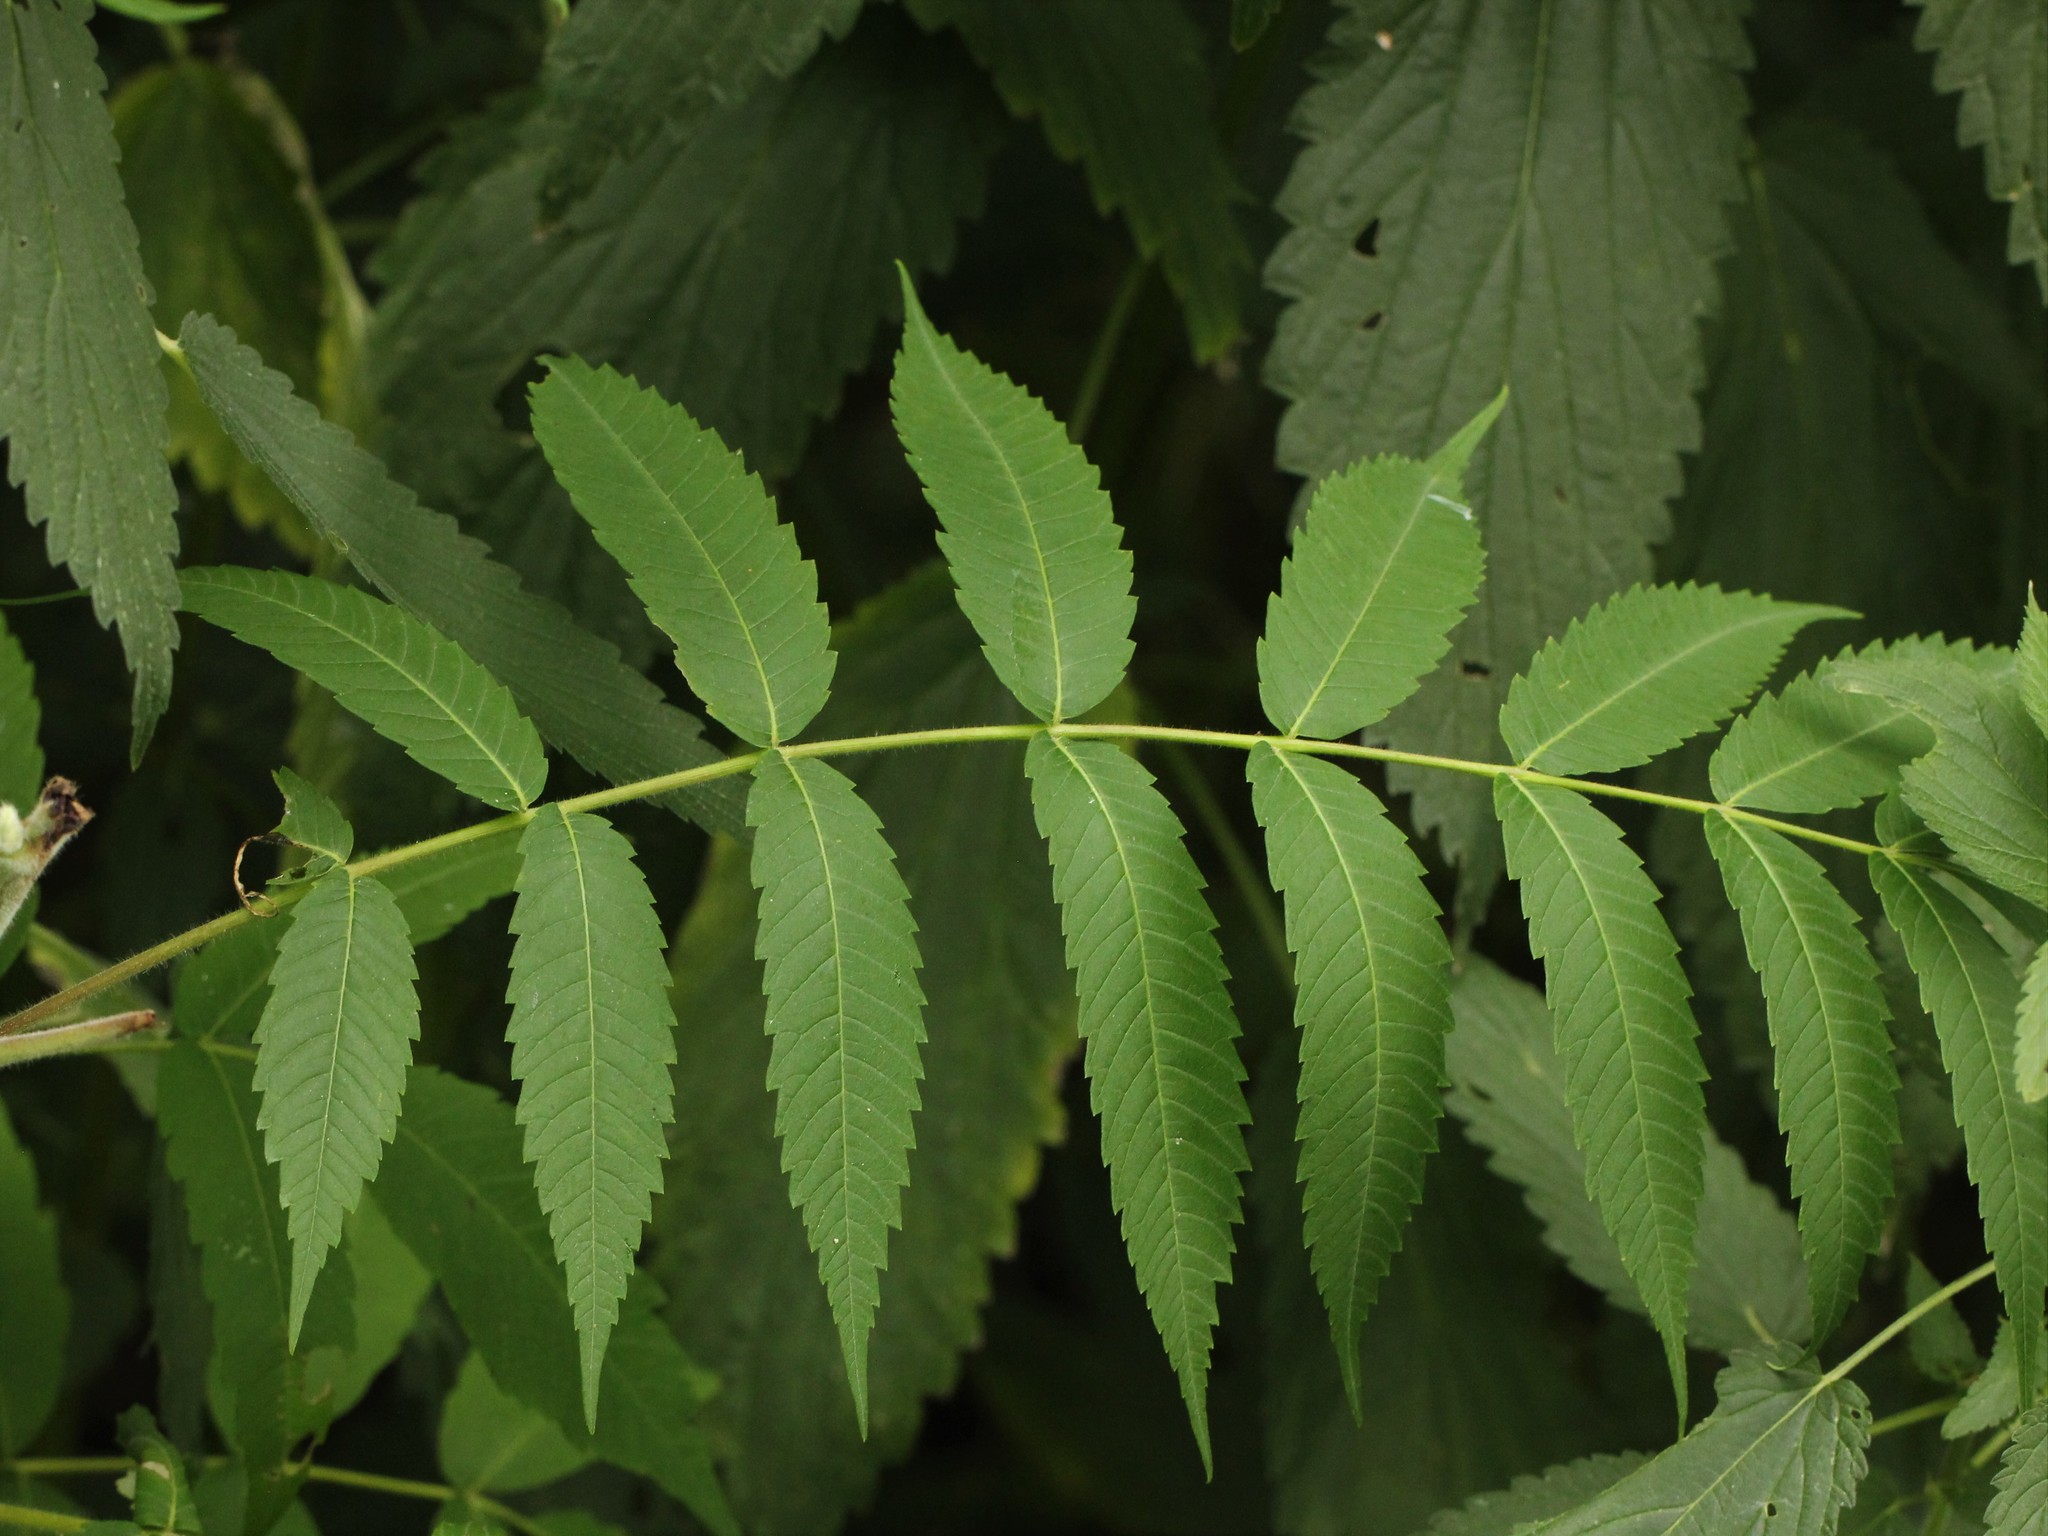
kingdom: Plantae
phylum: Tracheophyta
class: Magnoliopsida
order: Sapindales
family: Anacardiaceae
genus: Rhus
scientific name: Rhus typhina
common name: Staghorn sumac
